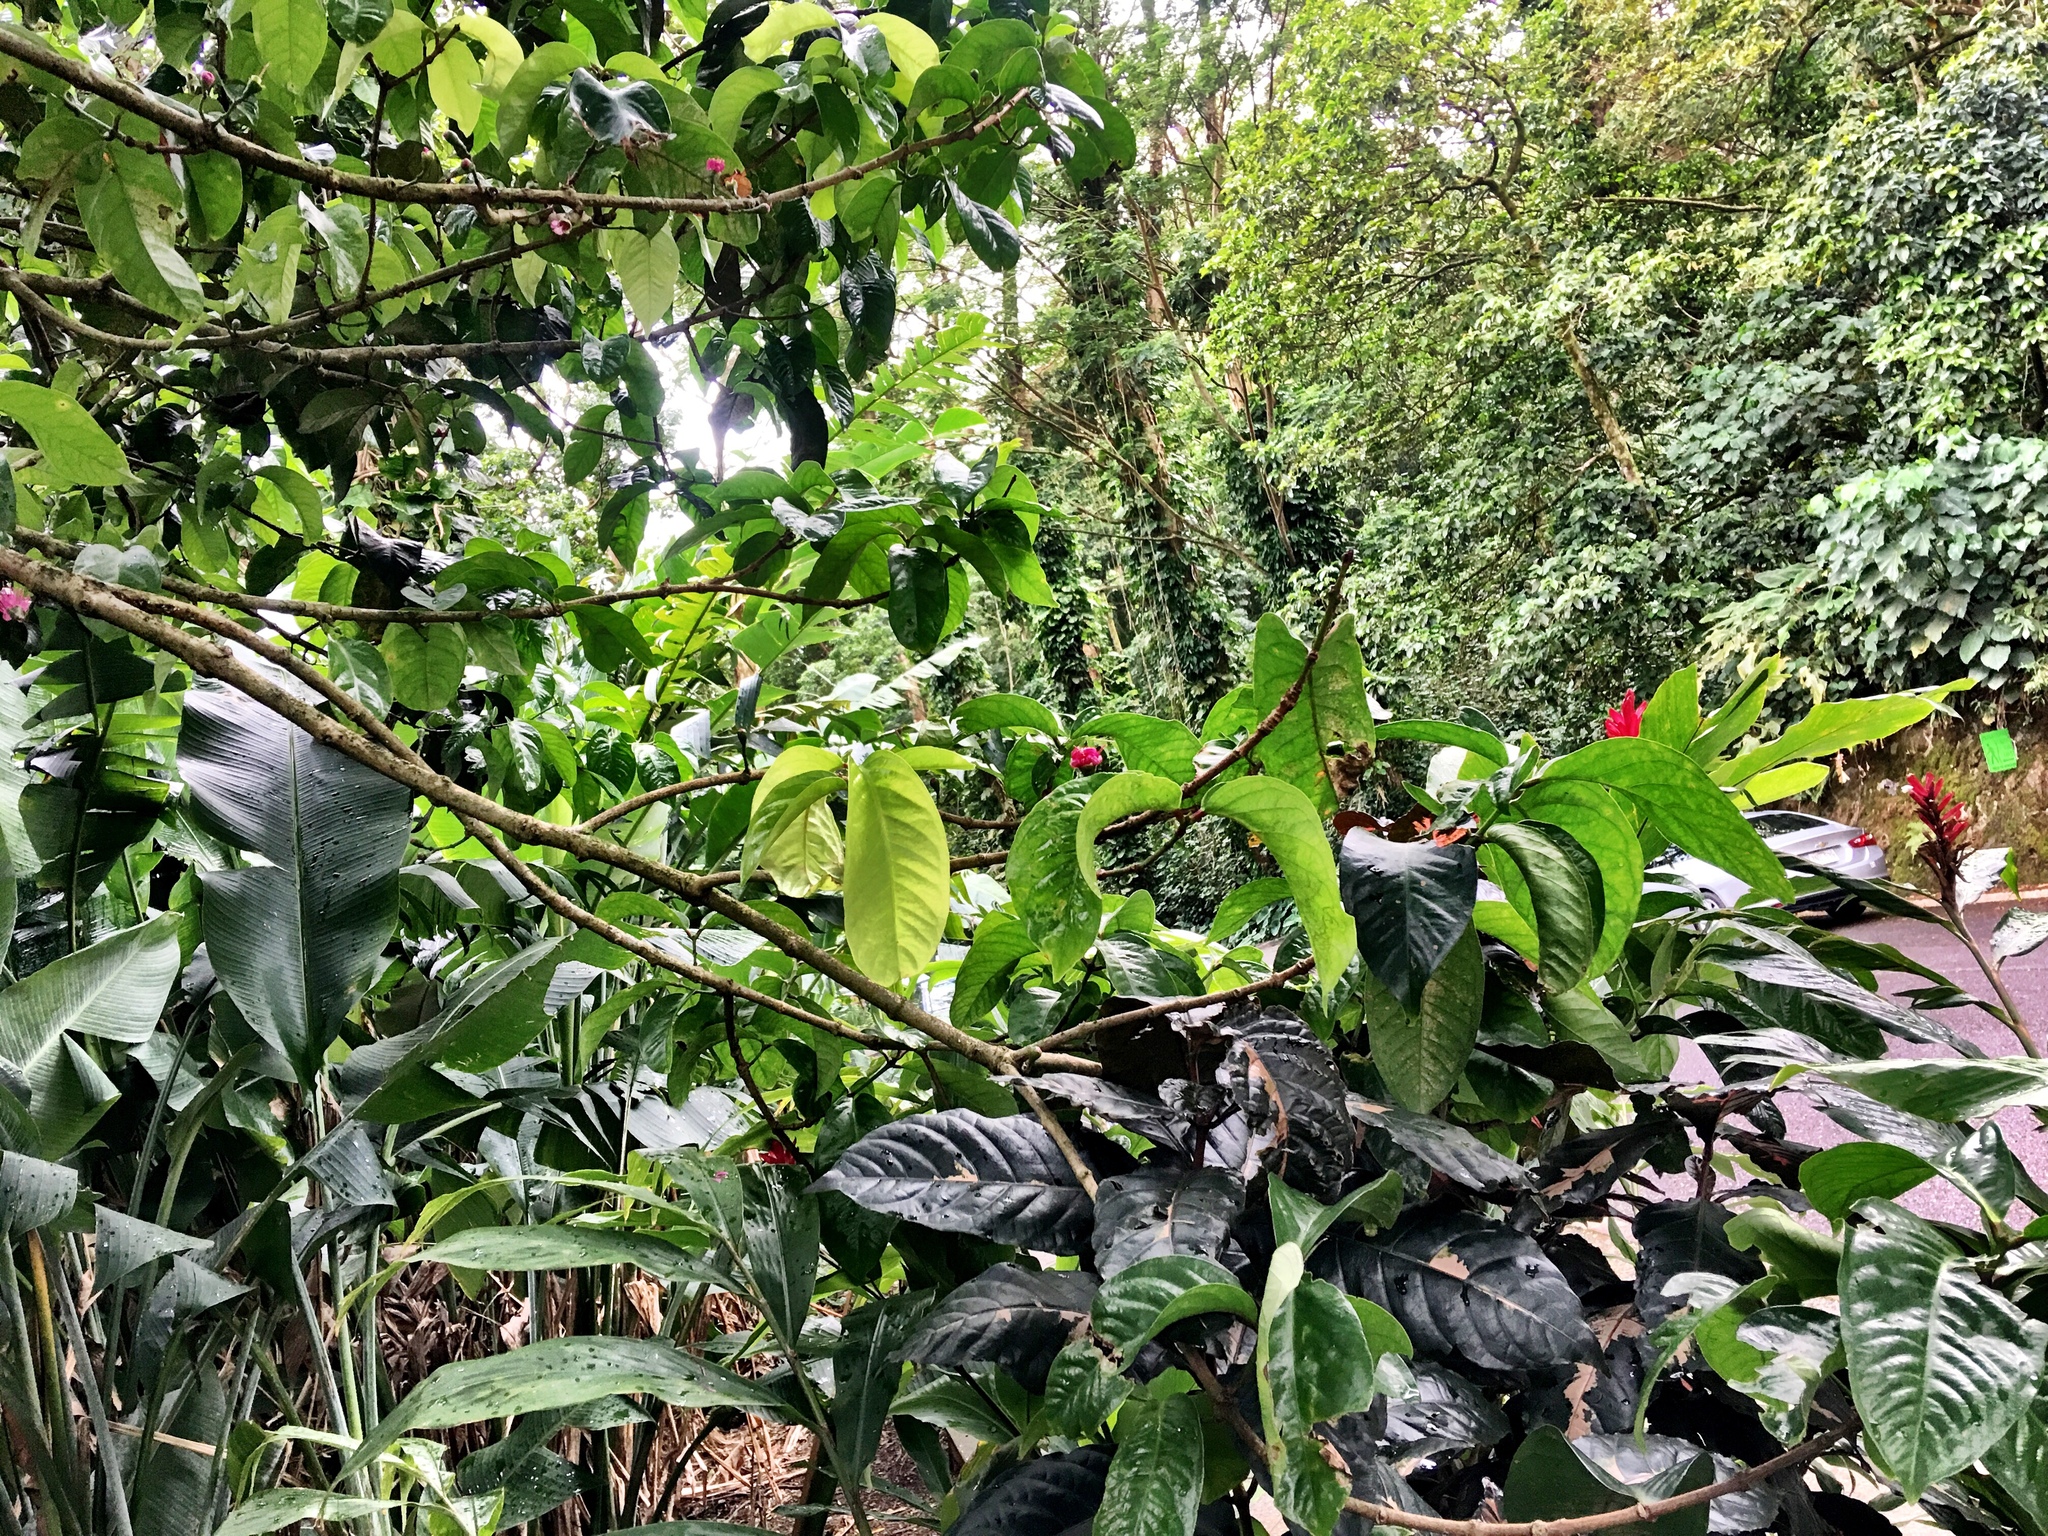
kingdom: Plantae
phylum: Tracheophyta
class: Magnoliopsida
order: Myrtales
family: Myrtaceae
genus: Syzygium
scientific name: Syzygium malaccense
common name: Malaysian apple
